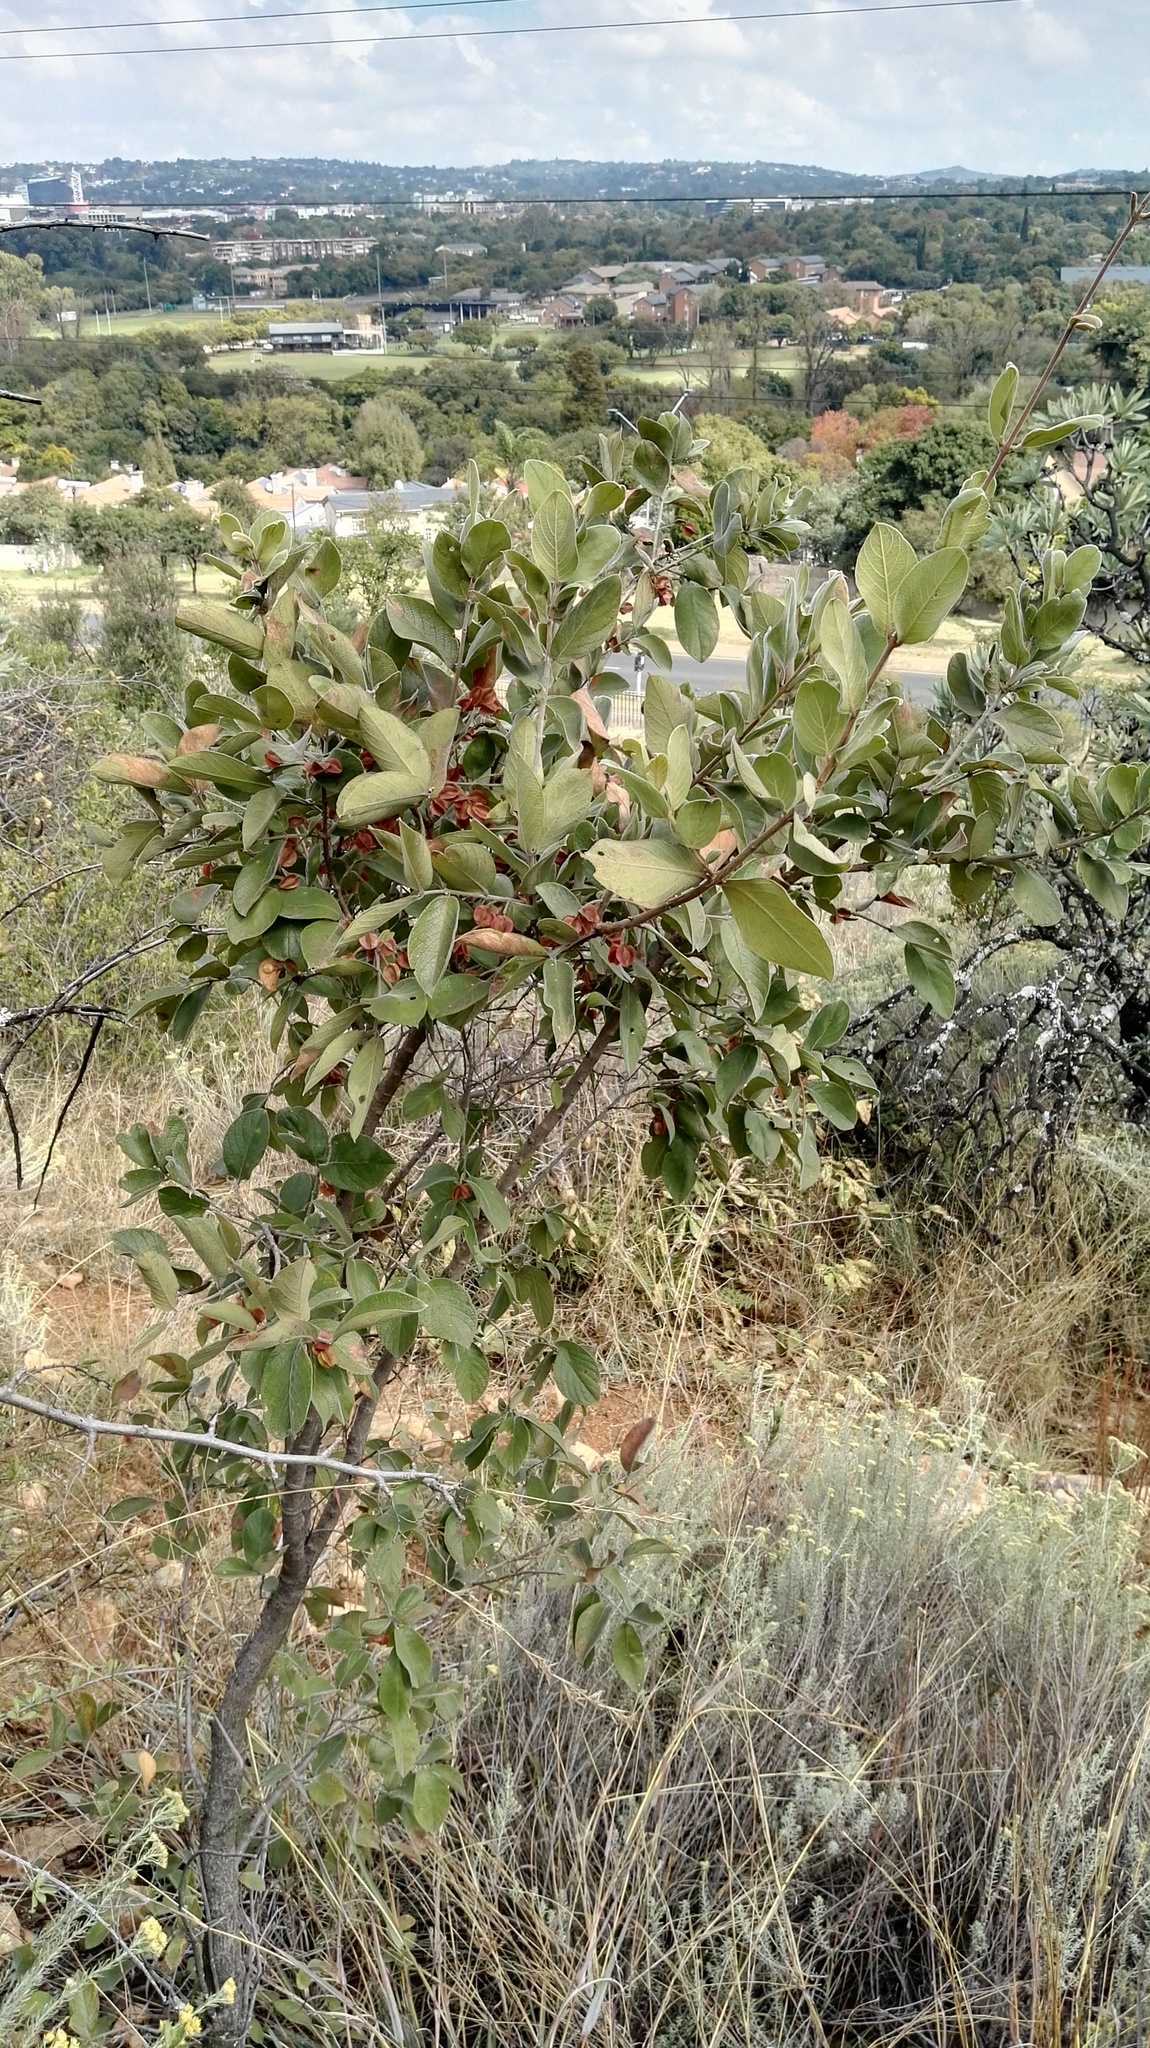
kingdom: Plantae
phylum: Tracheophyta
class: Magnoliopsida
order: Myrtales
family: Combretaceae
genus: Combretum
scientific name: Combretum molle
